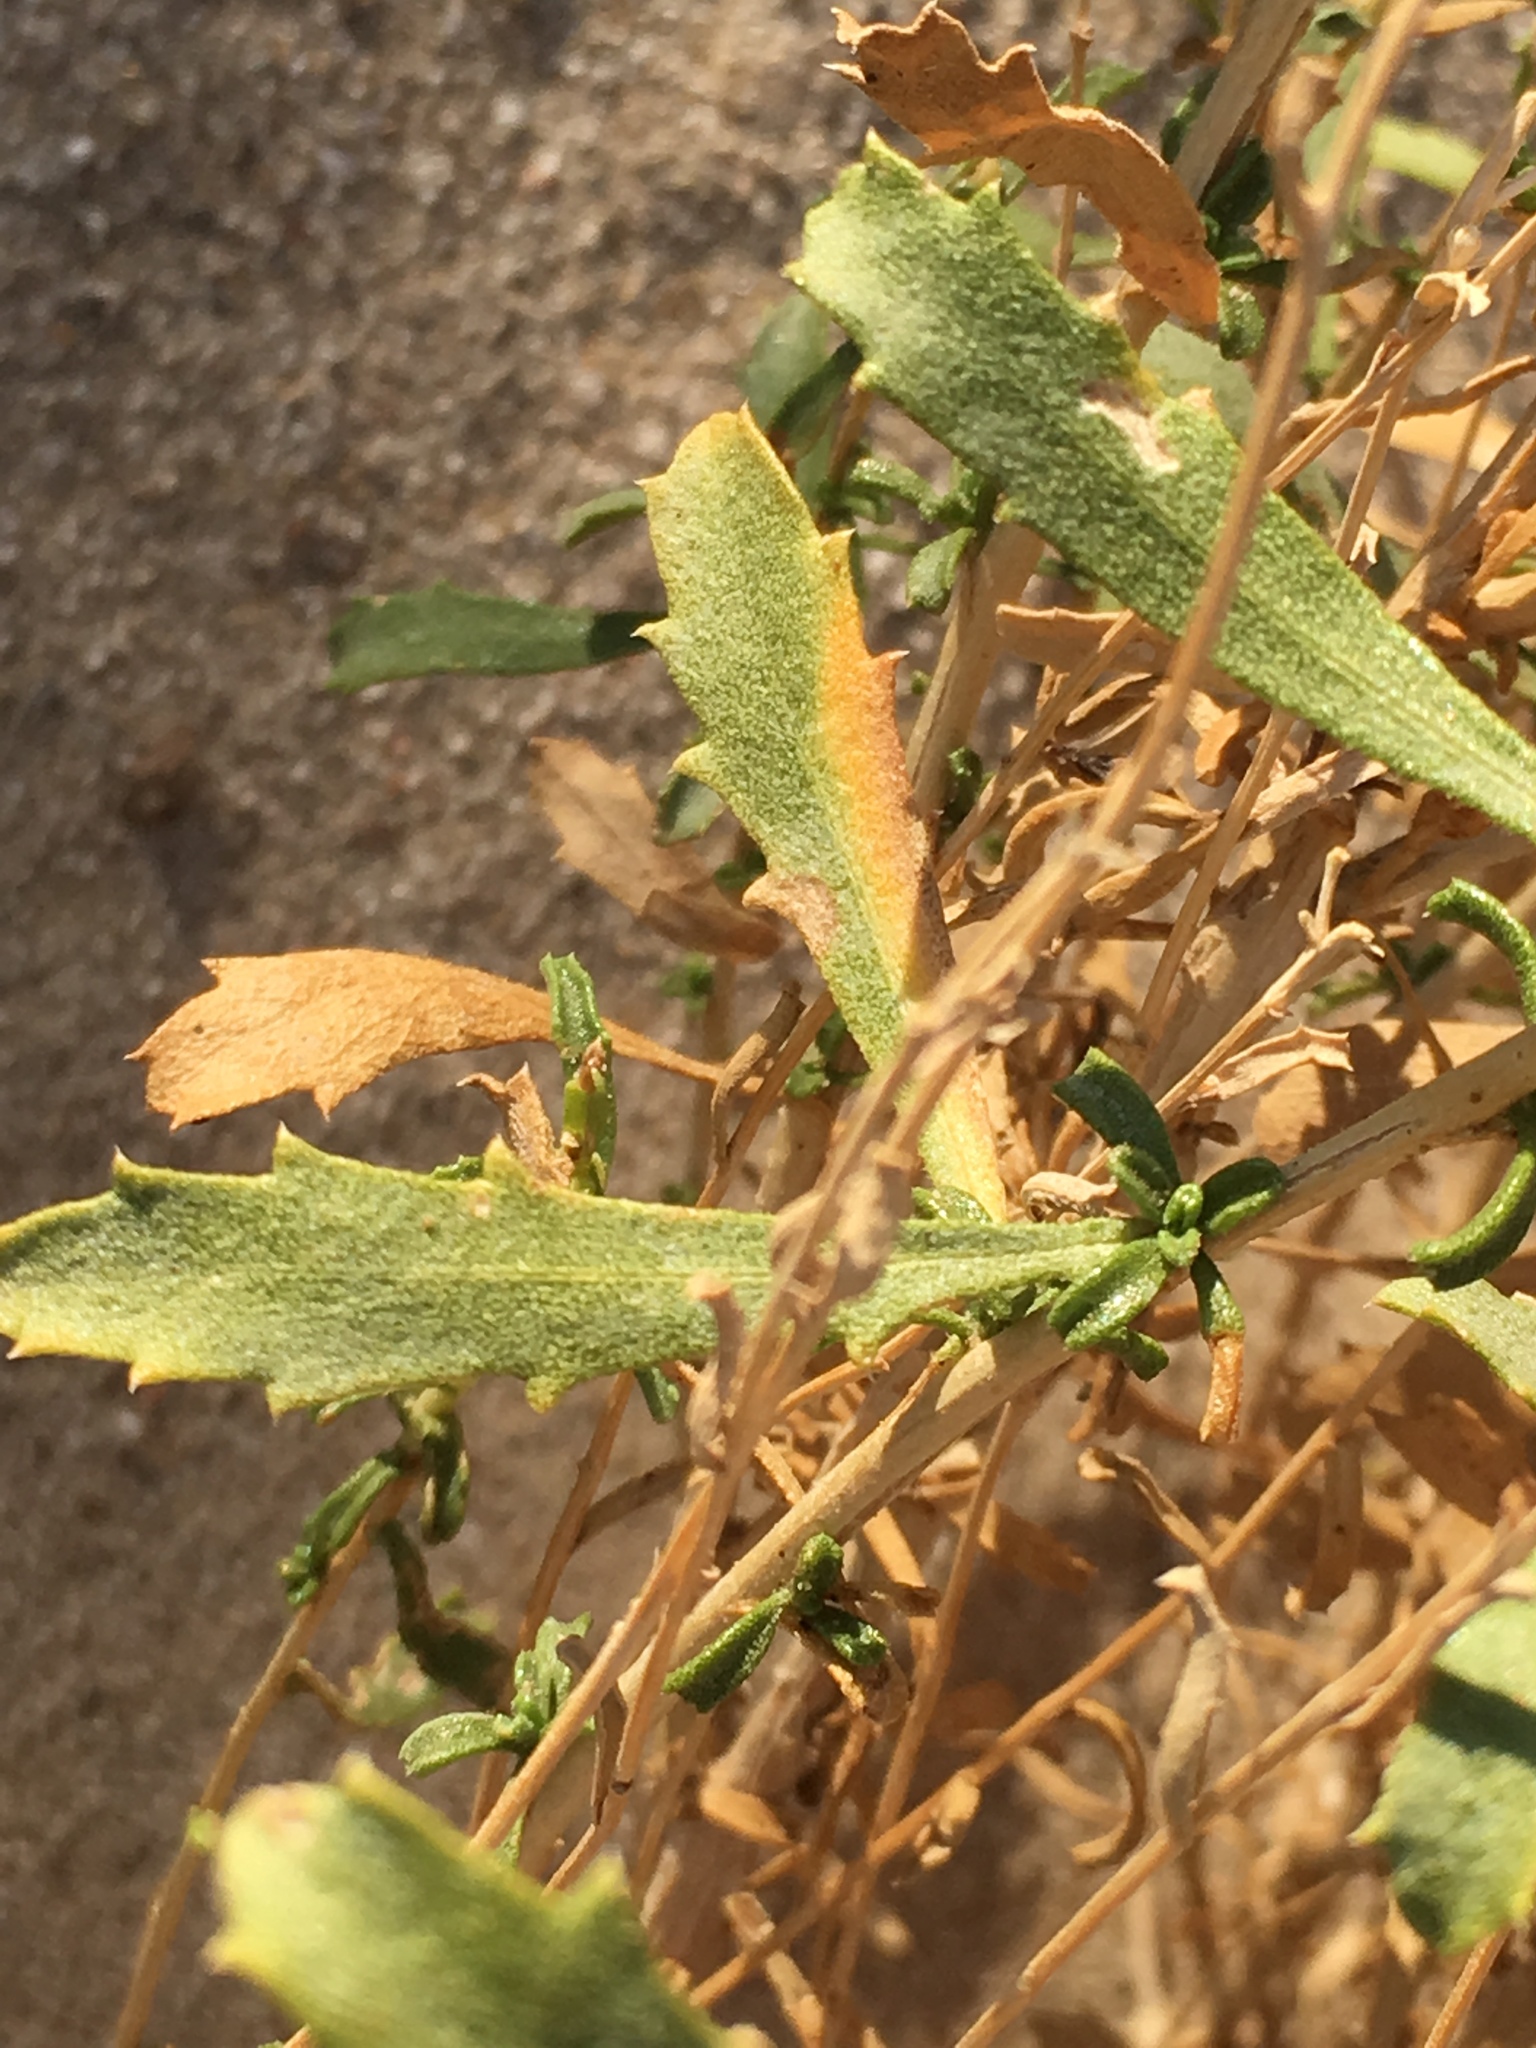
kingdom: Plantae
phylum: Tracheophyta
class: Magnoliopsida
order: Asterales
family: Asteraceae
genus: Isocoma
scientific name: Isocoma acradenia
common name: Alkali jimmyweed
